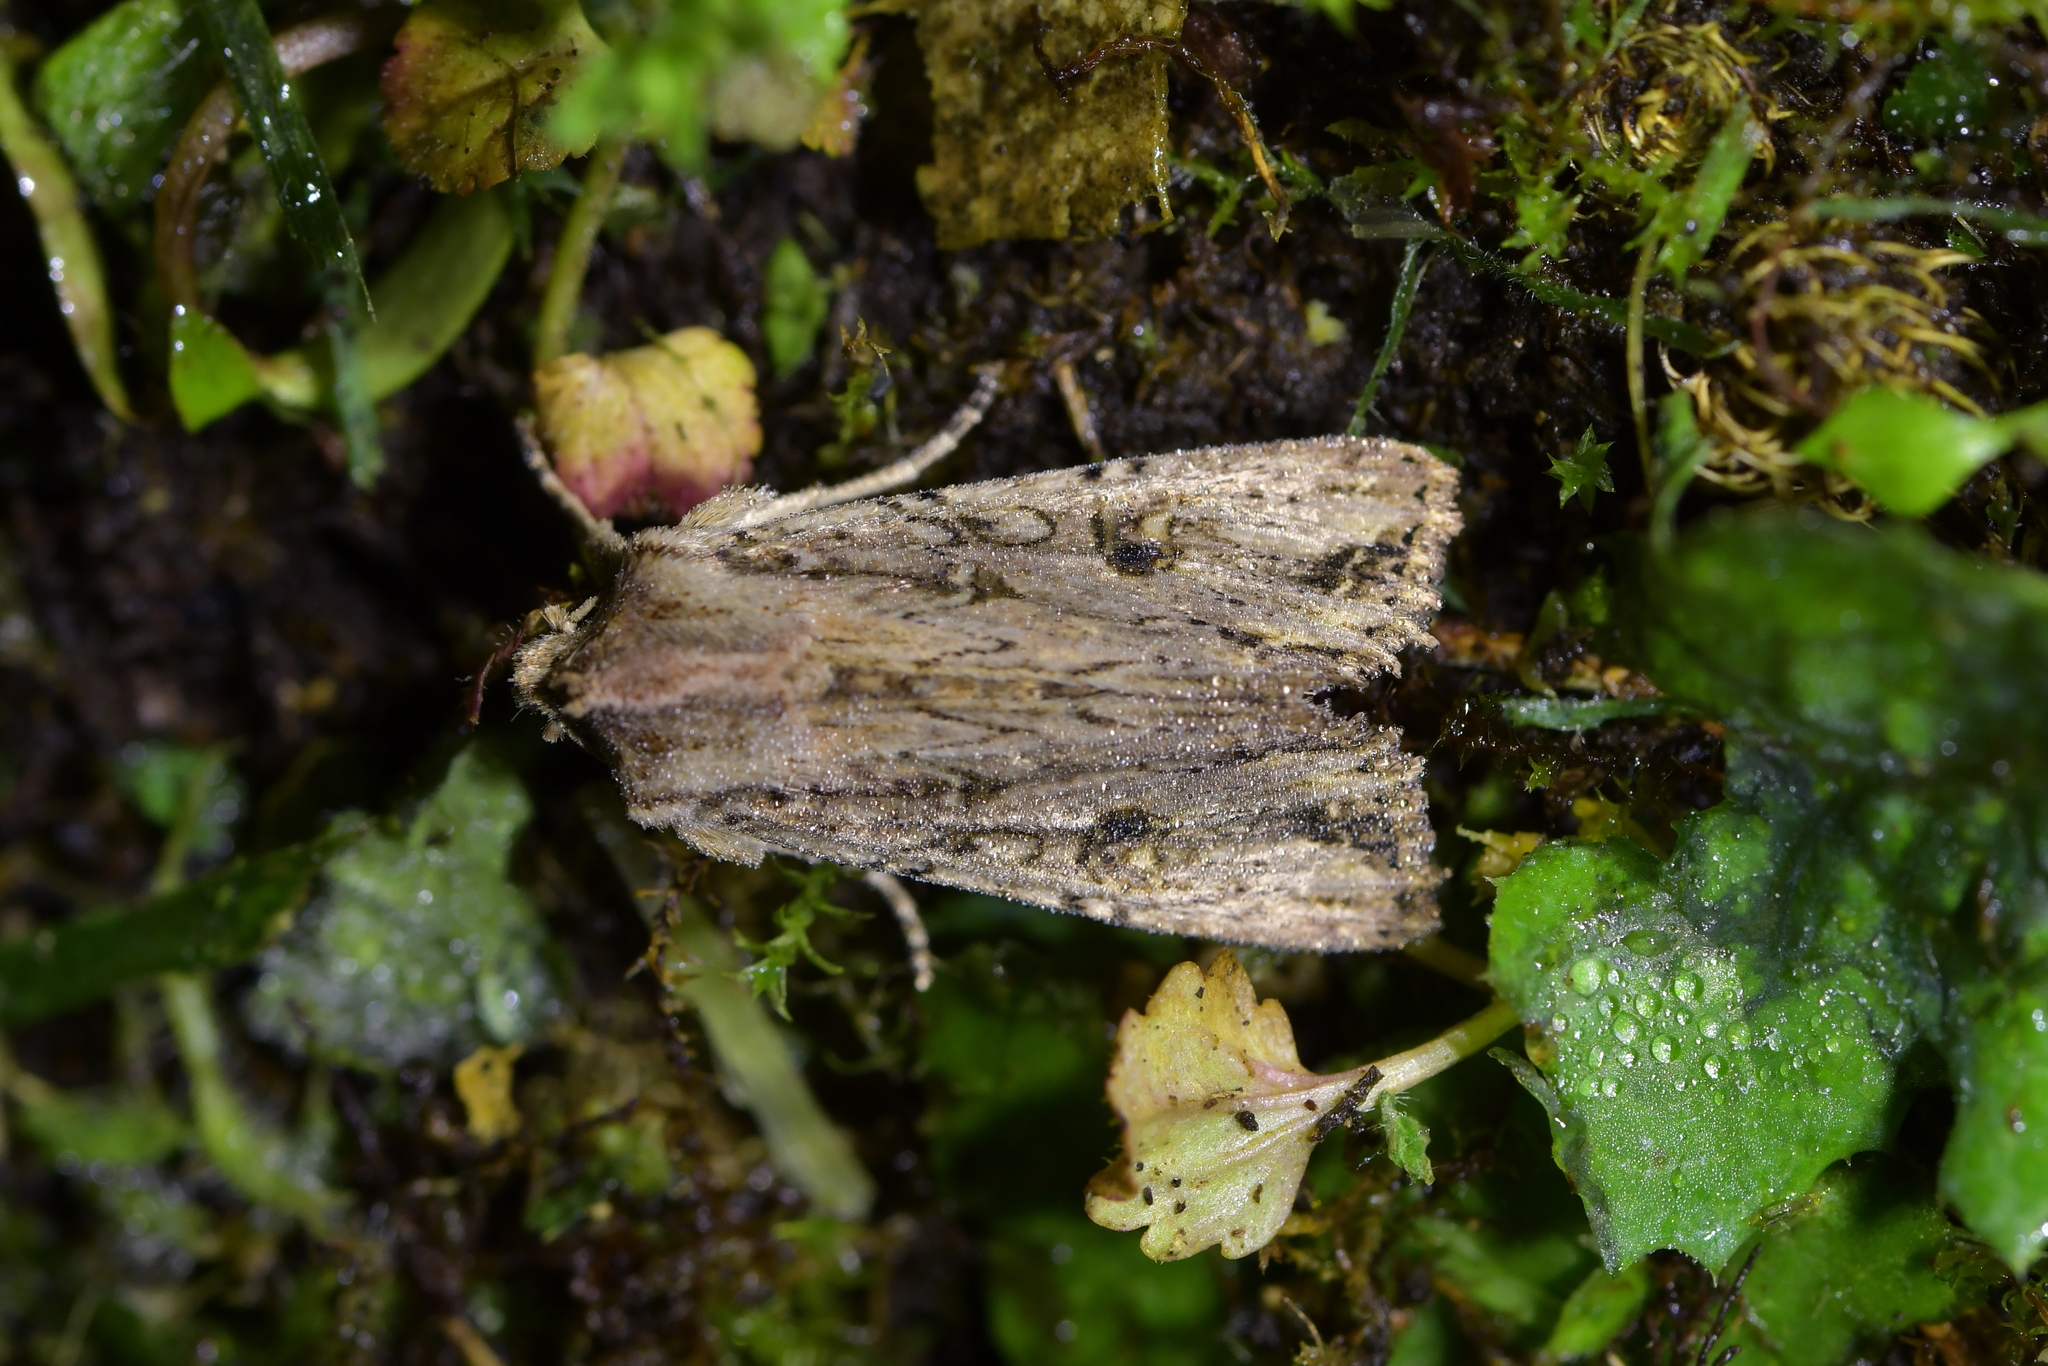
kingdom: Animalia
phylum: Arthropoda
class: Insecta
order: Lepidoptera
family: Noctuidae
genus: Ichneutica
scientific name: Ichneutica lignana
